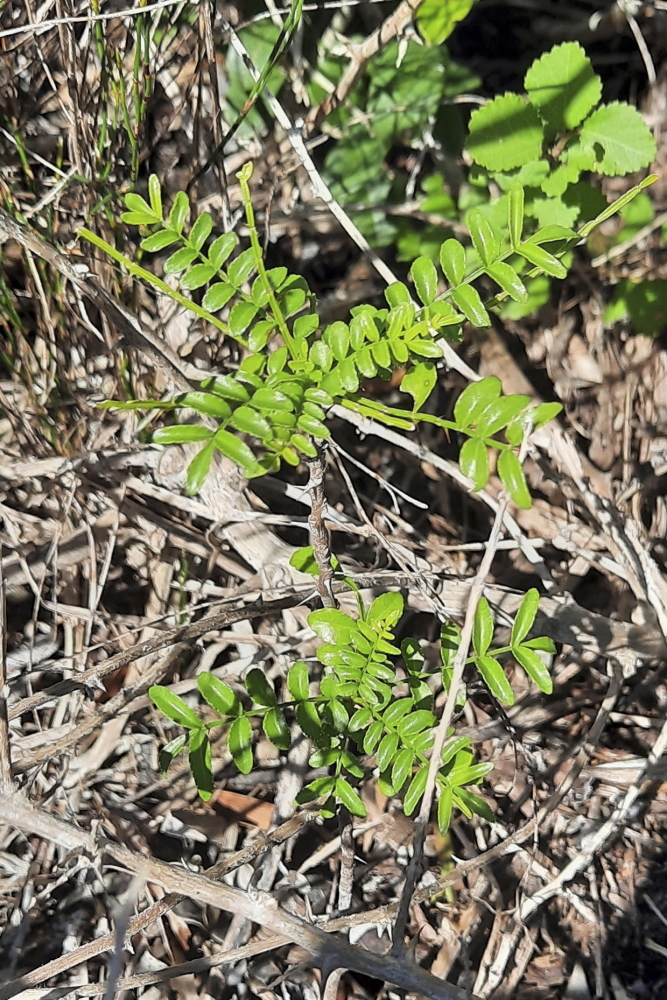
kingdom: Plantae
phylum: Tracheophyta
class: Magnoliopsida
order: Sapindales
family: Rutaceae
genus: Zanthoxylum
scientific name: Zanthoxylum capense
